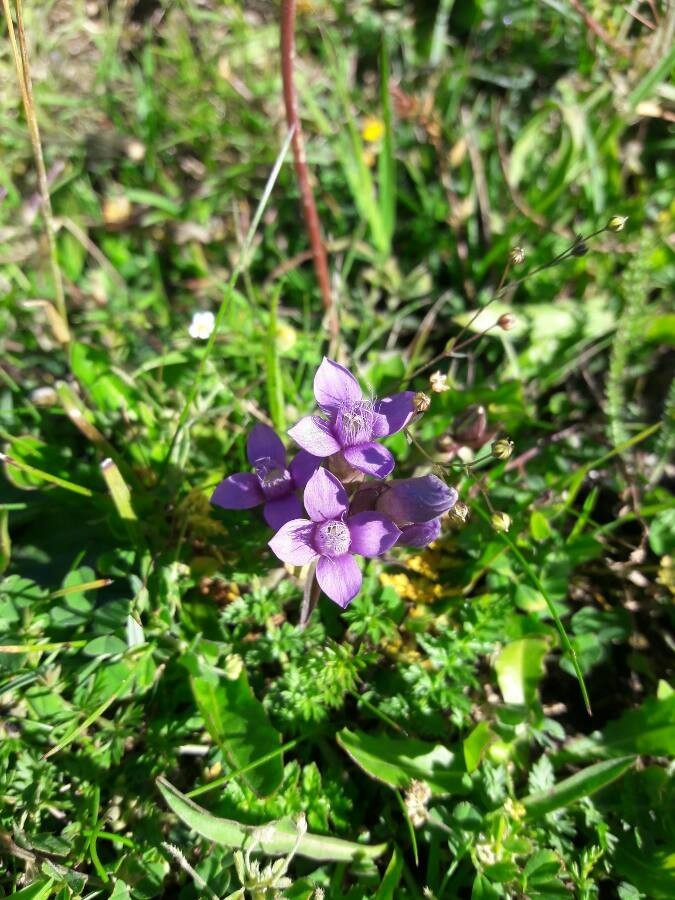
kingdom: Plantae
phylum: Tracheophyta
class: Magnoliopsida
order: Gentianales
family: Gentianaceae
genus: Gentianella
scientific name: Gentianella campestris
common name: Field gentian
